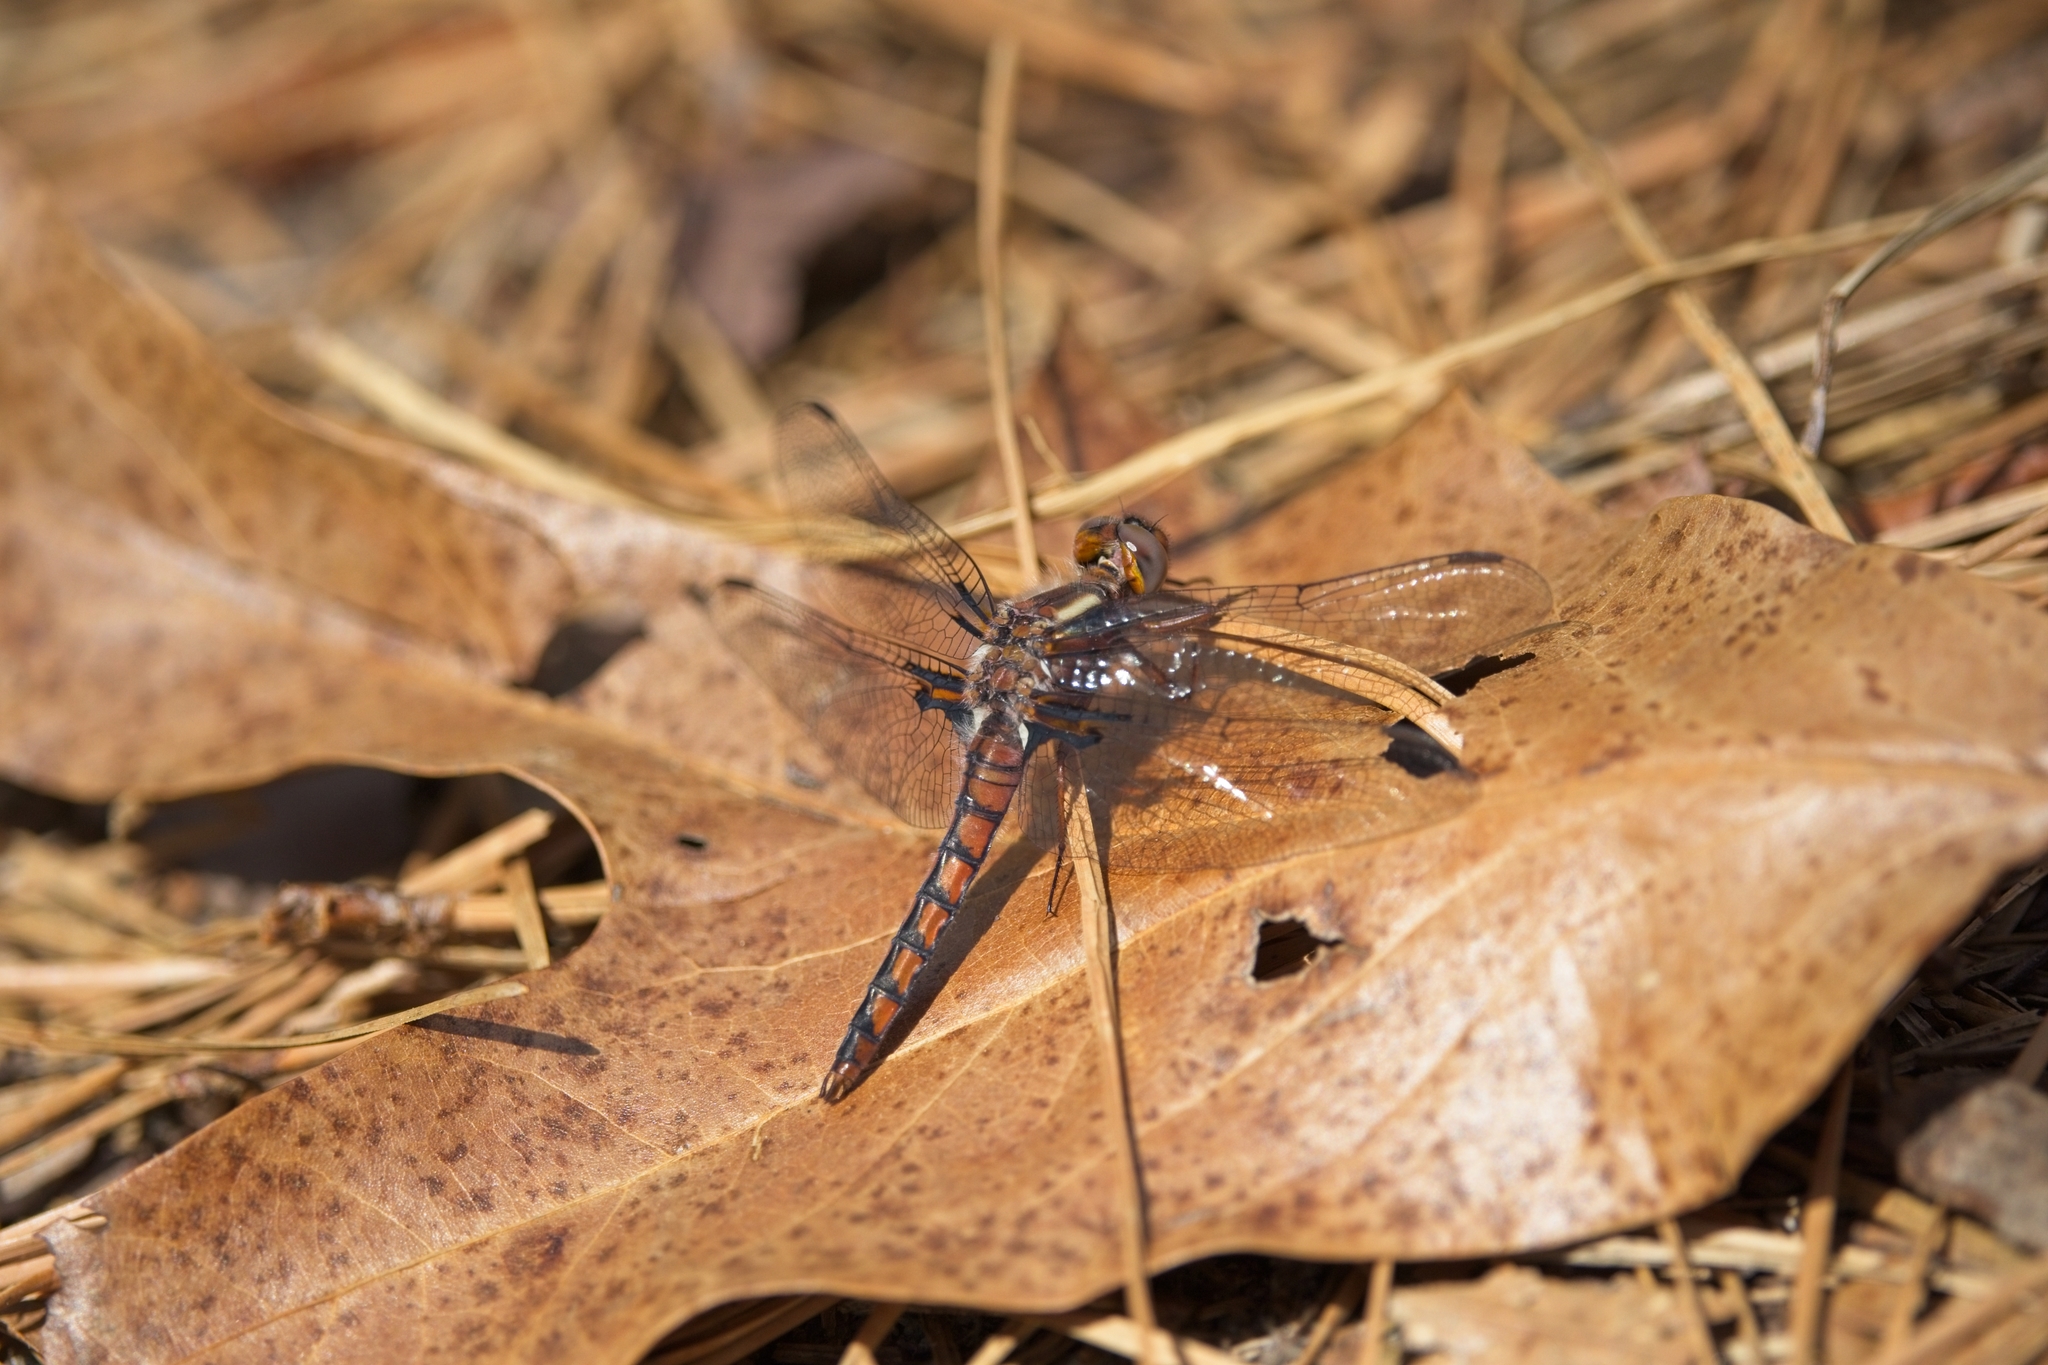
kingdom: Animalia
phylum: Arthropoda
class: Insecta
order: Odonata
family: Libellulidae
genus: Ladona
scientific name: Ladona deplanata
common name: Blue corporal
